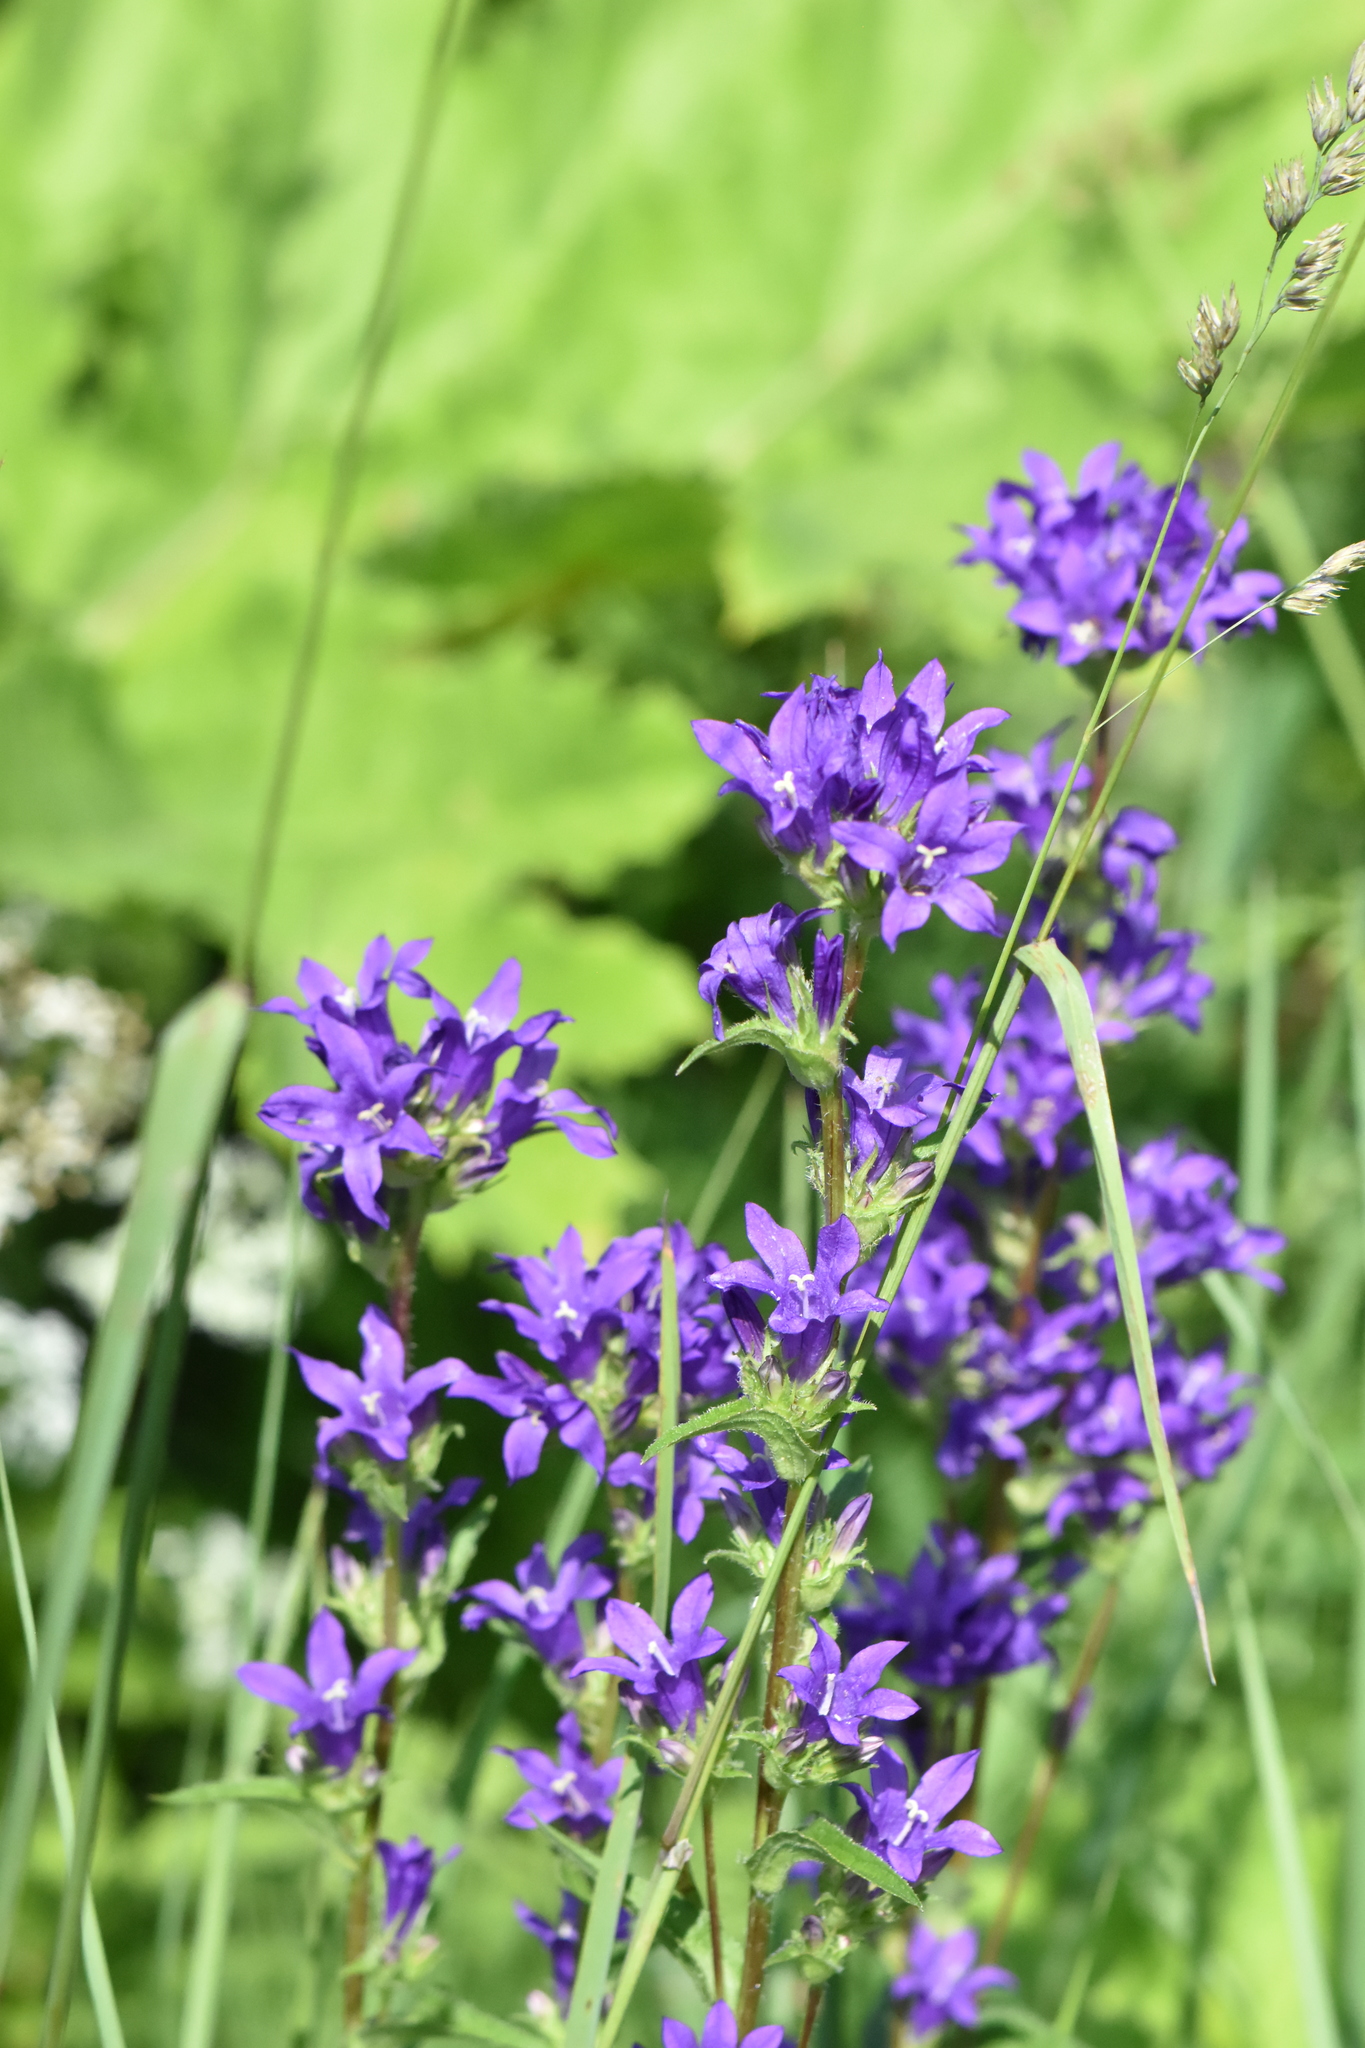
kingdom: Plantae
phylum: Tracheophyta
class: Magnoliopsida
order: Asterales
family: Campanulaceae
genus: Campanula
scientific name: Campanula glomerata
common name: Clustered bellflower
